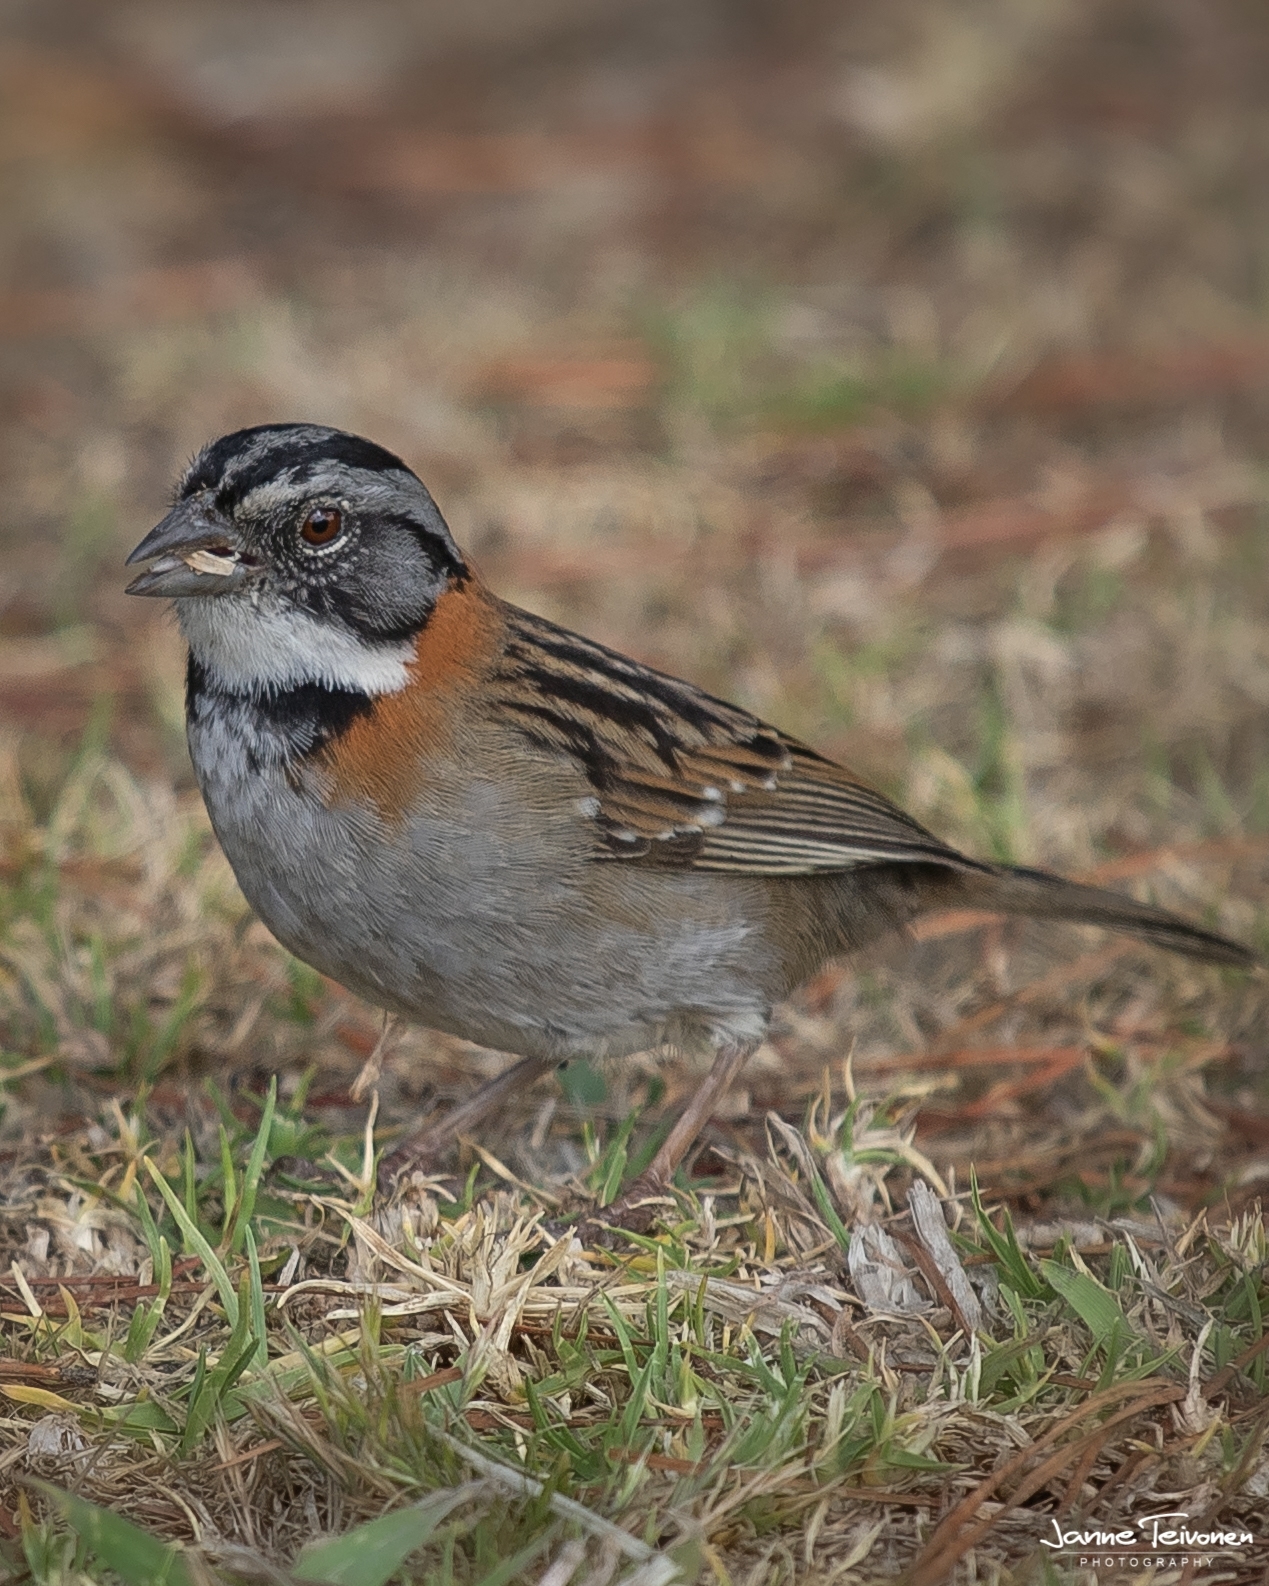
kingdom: Animalia
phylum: Chordata
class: Aves
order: Passeriformes
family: Passerellidae
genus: Zonotrichia
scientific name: Zonotrichia capensis
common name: Rufous-collared sparrow
